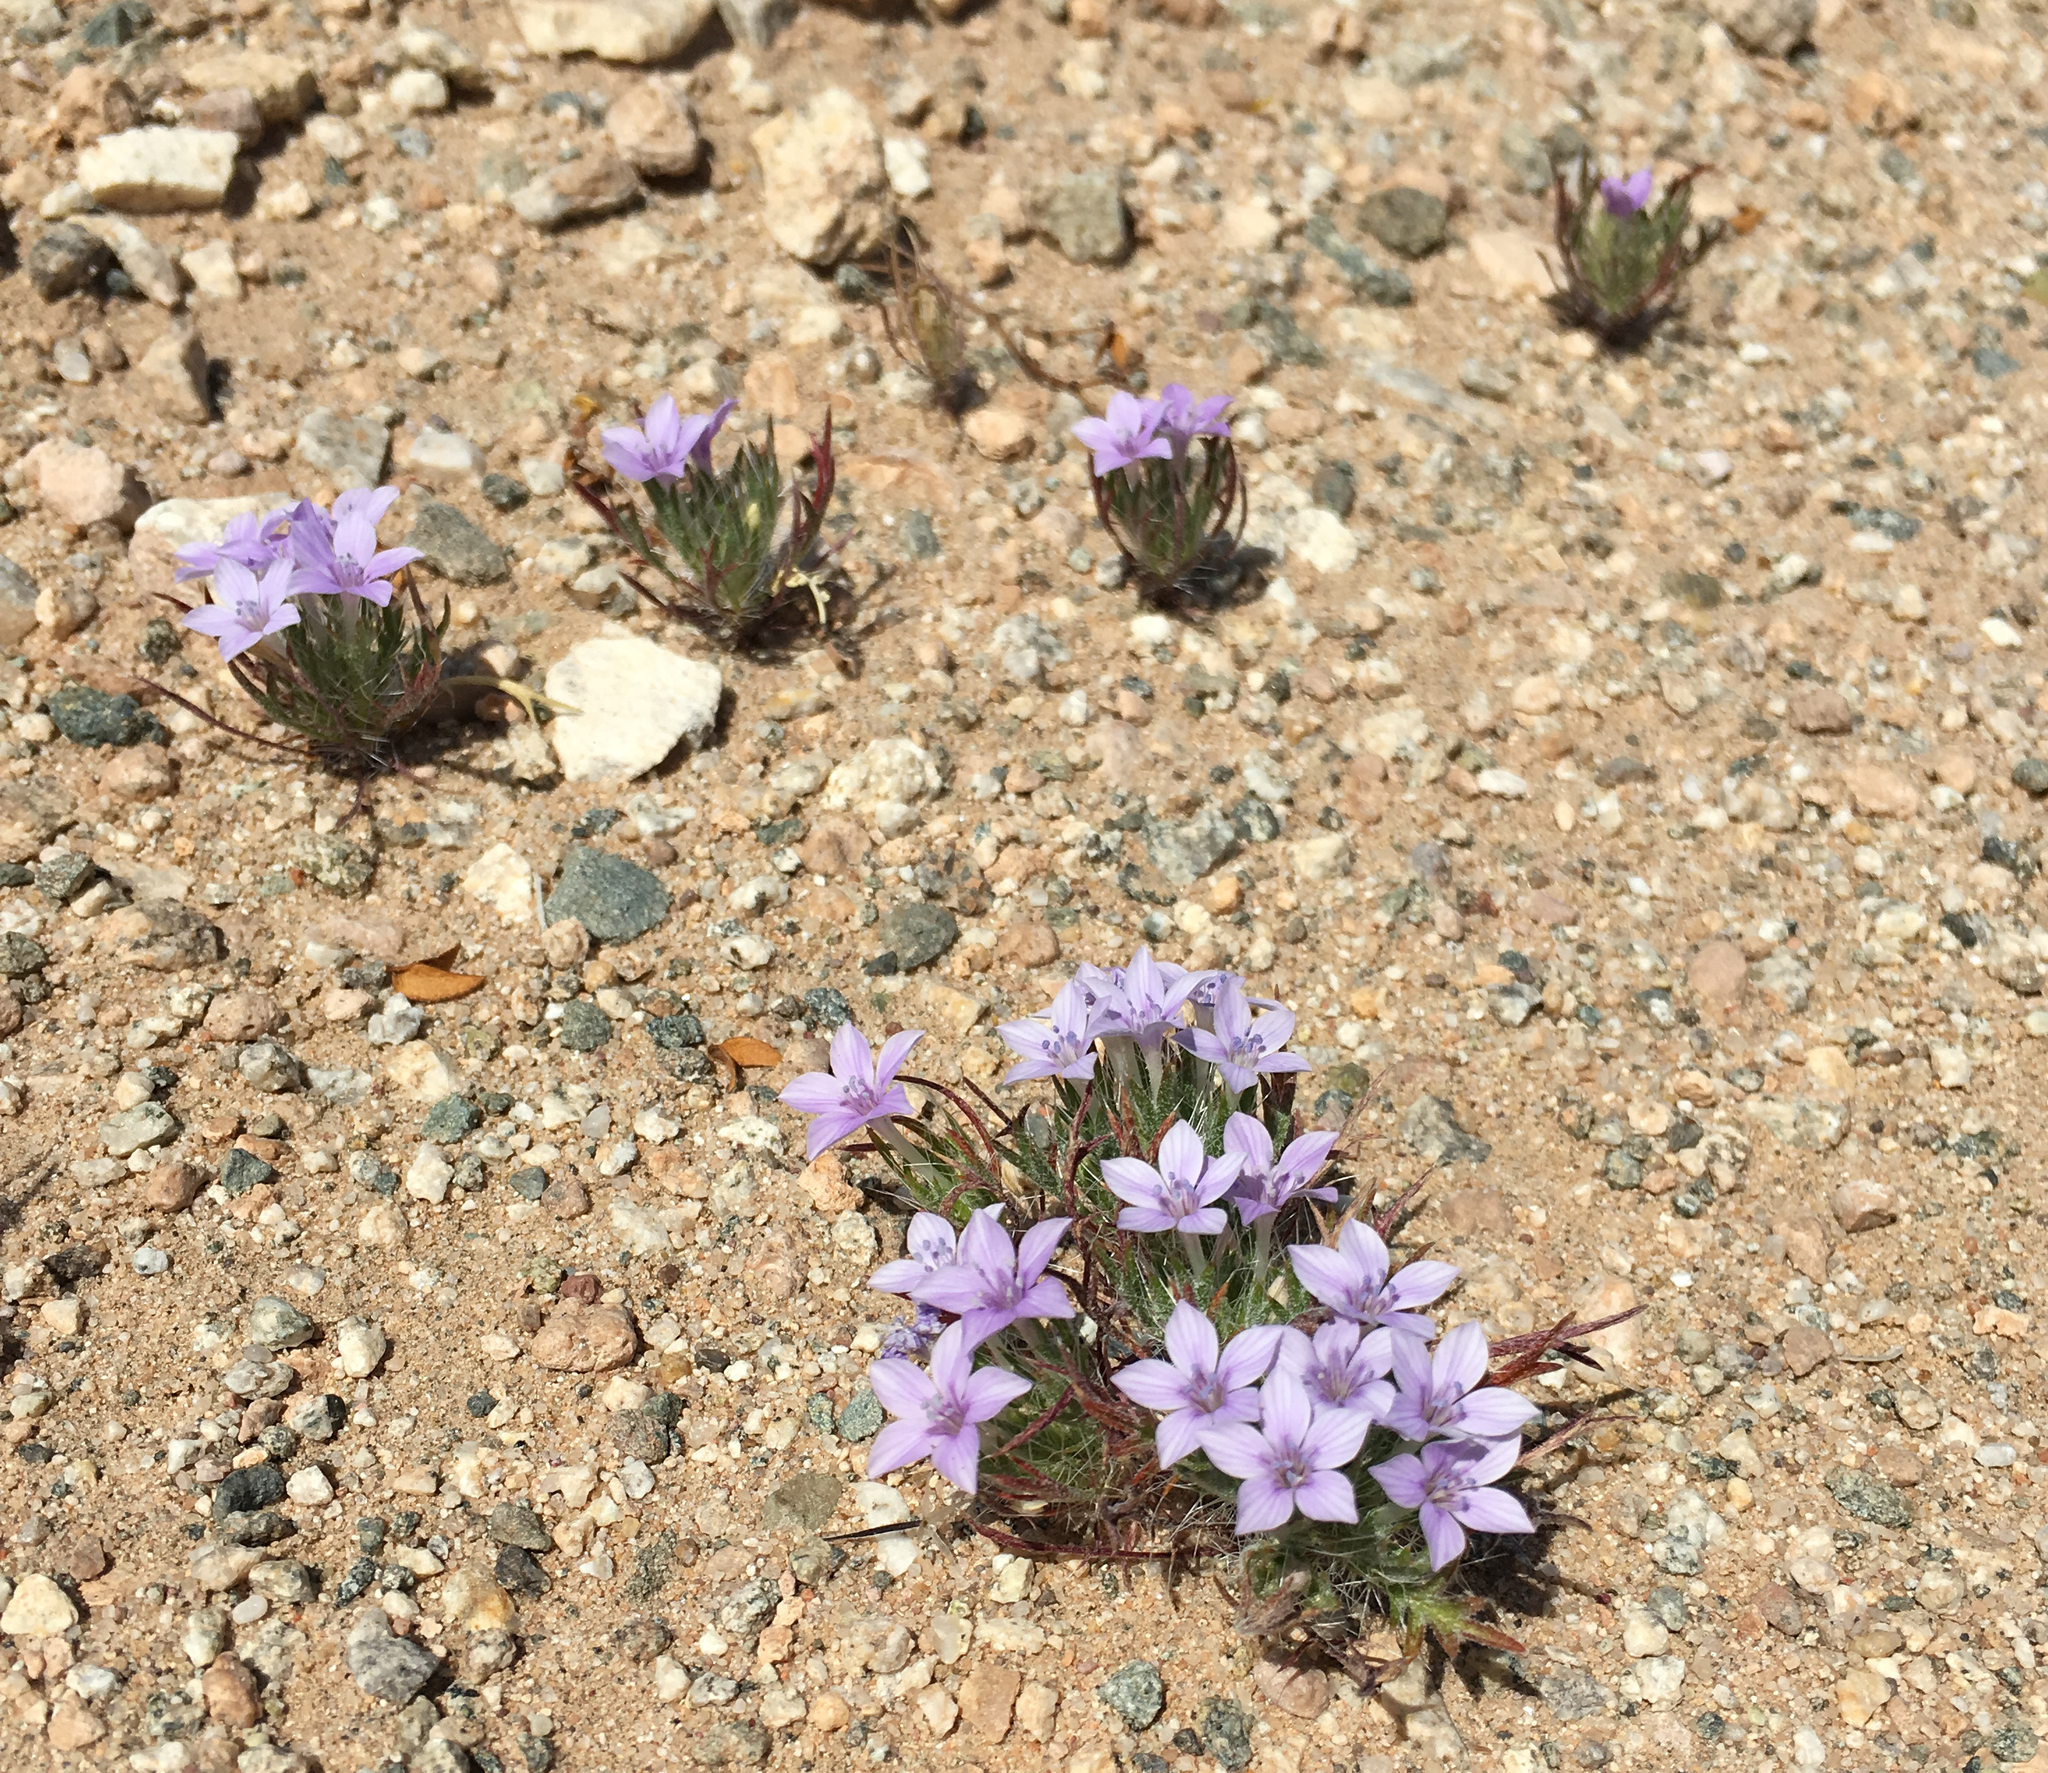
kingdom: Plantae
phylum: Tracheophyta
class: Magnoliopsida
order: Ericales
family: Polemoniaceae
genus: Langloisia
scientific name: Langloisia setosissima
